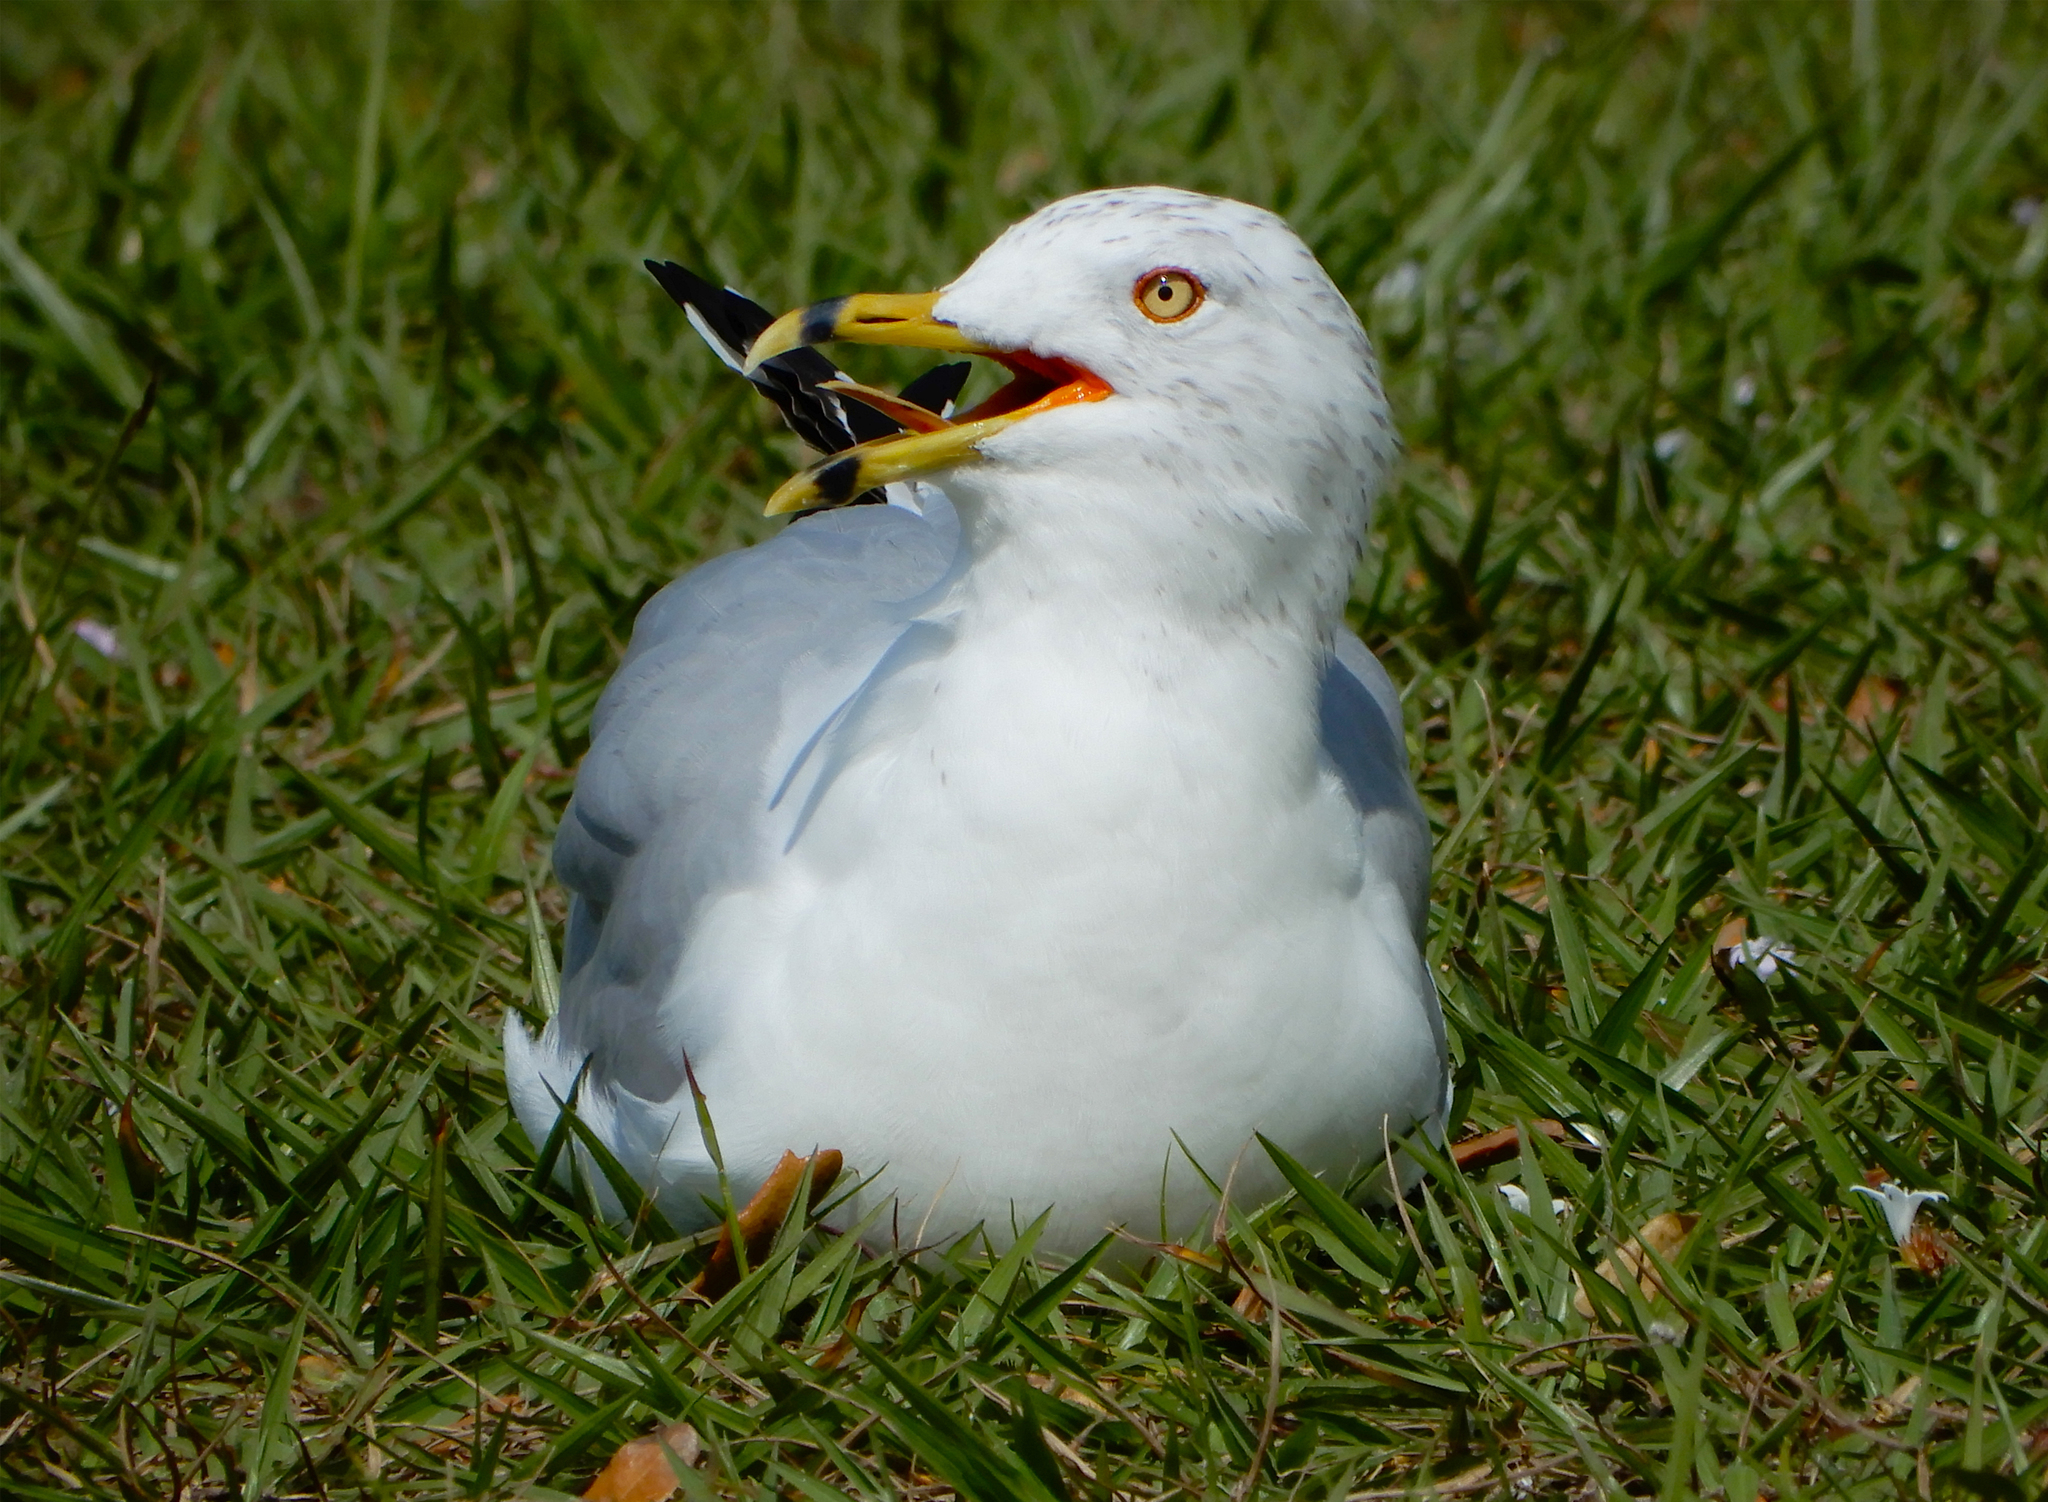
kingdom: Animalia
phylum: Chordata
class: Aves
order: Charadriiformes
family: Laridae
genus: Larus
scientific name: Larus delawarensis
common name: Ring-billed gull
